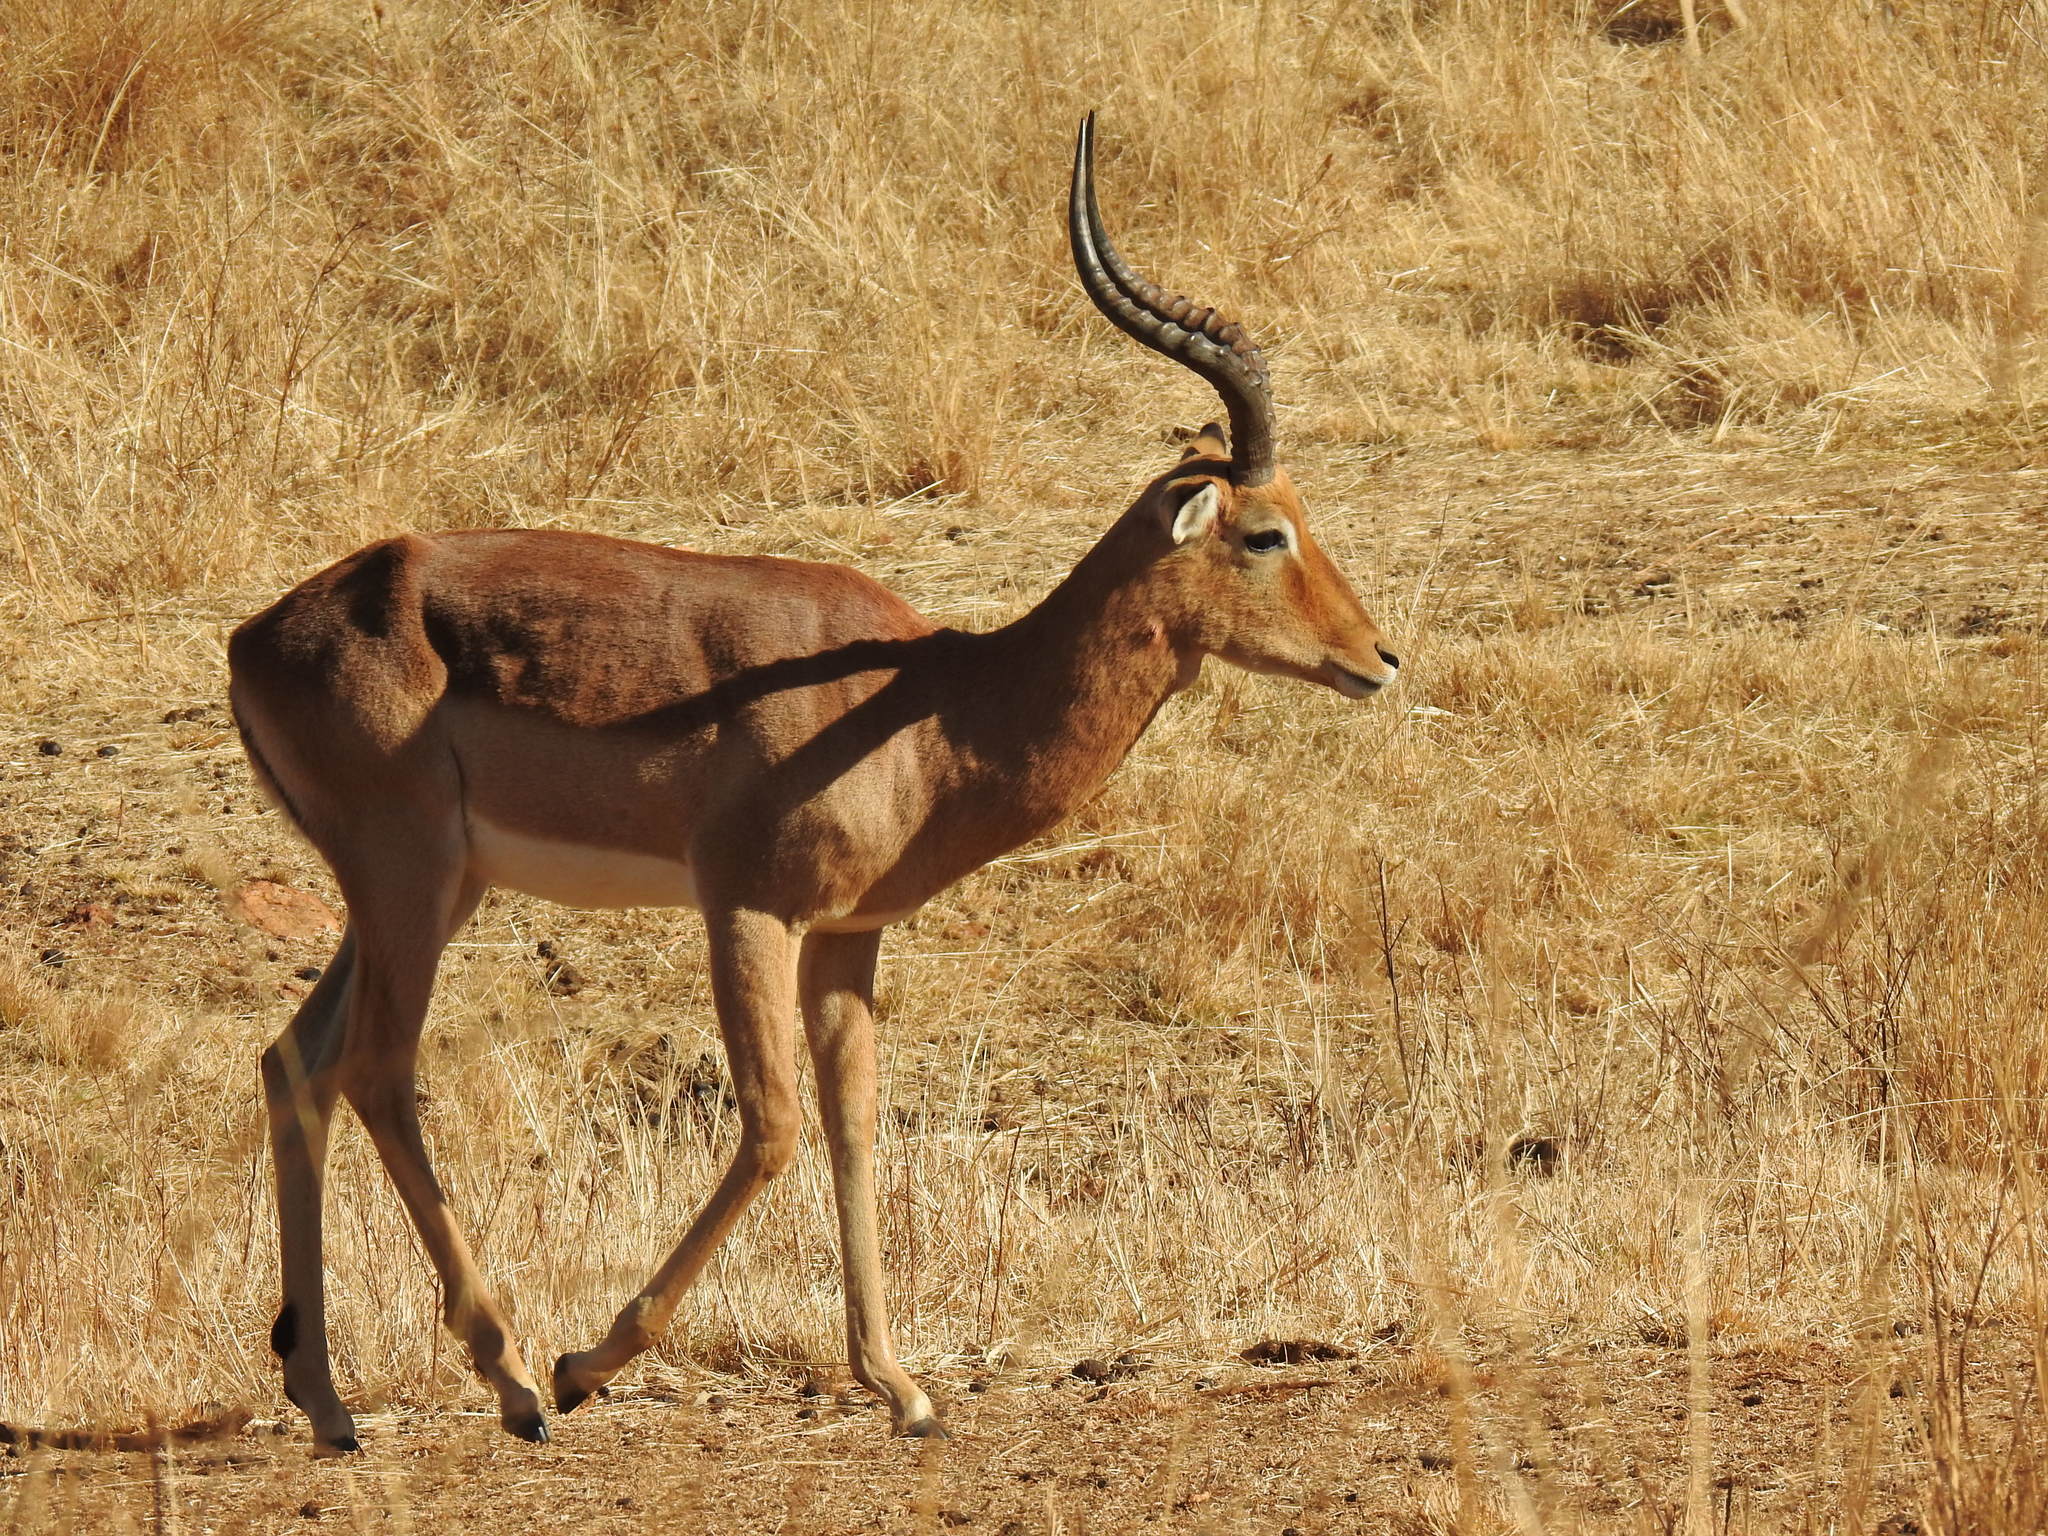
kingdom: Animalia
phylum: Chordata
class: Mammalia
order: Artiodactyla
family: Bovidae
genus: Aepyceros
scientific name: Aepyceros melampus
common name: Impala
